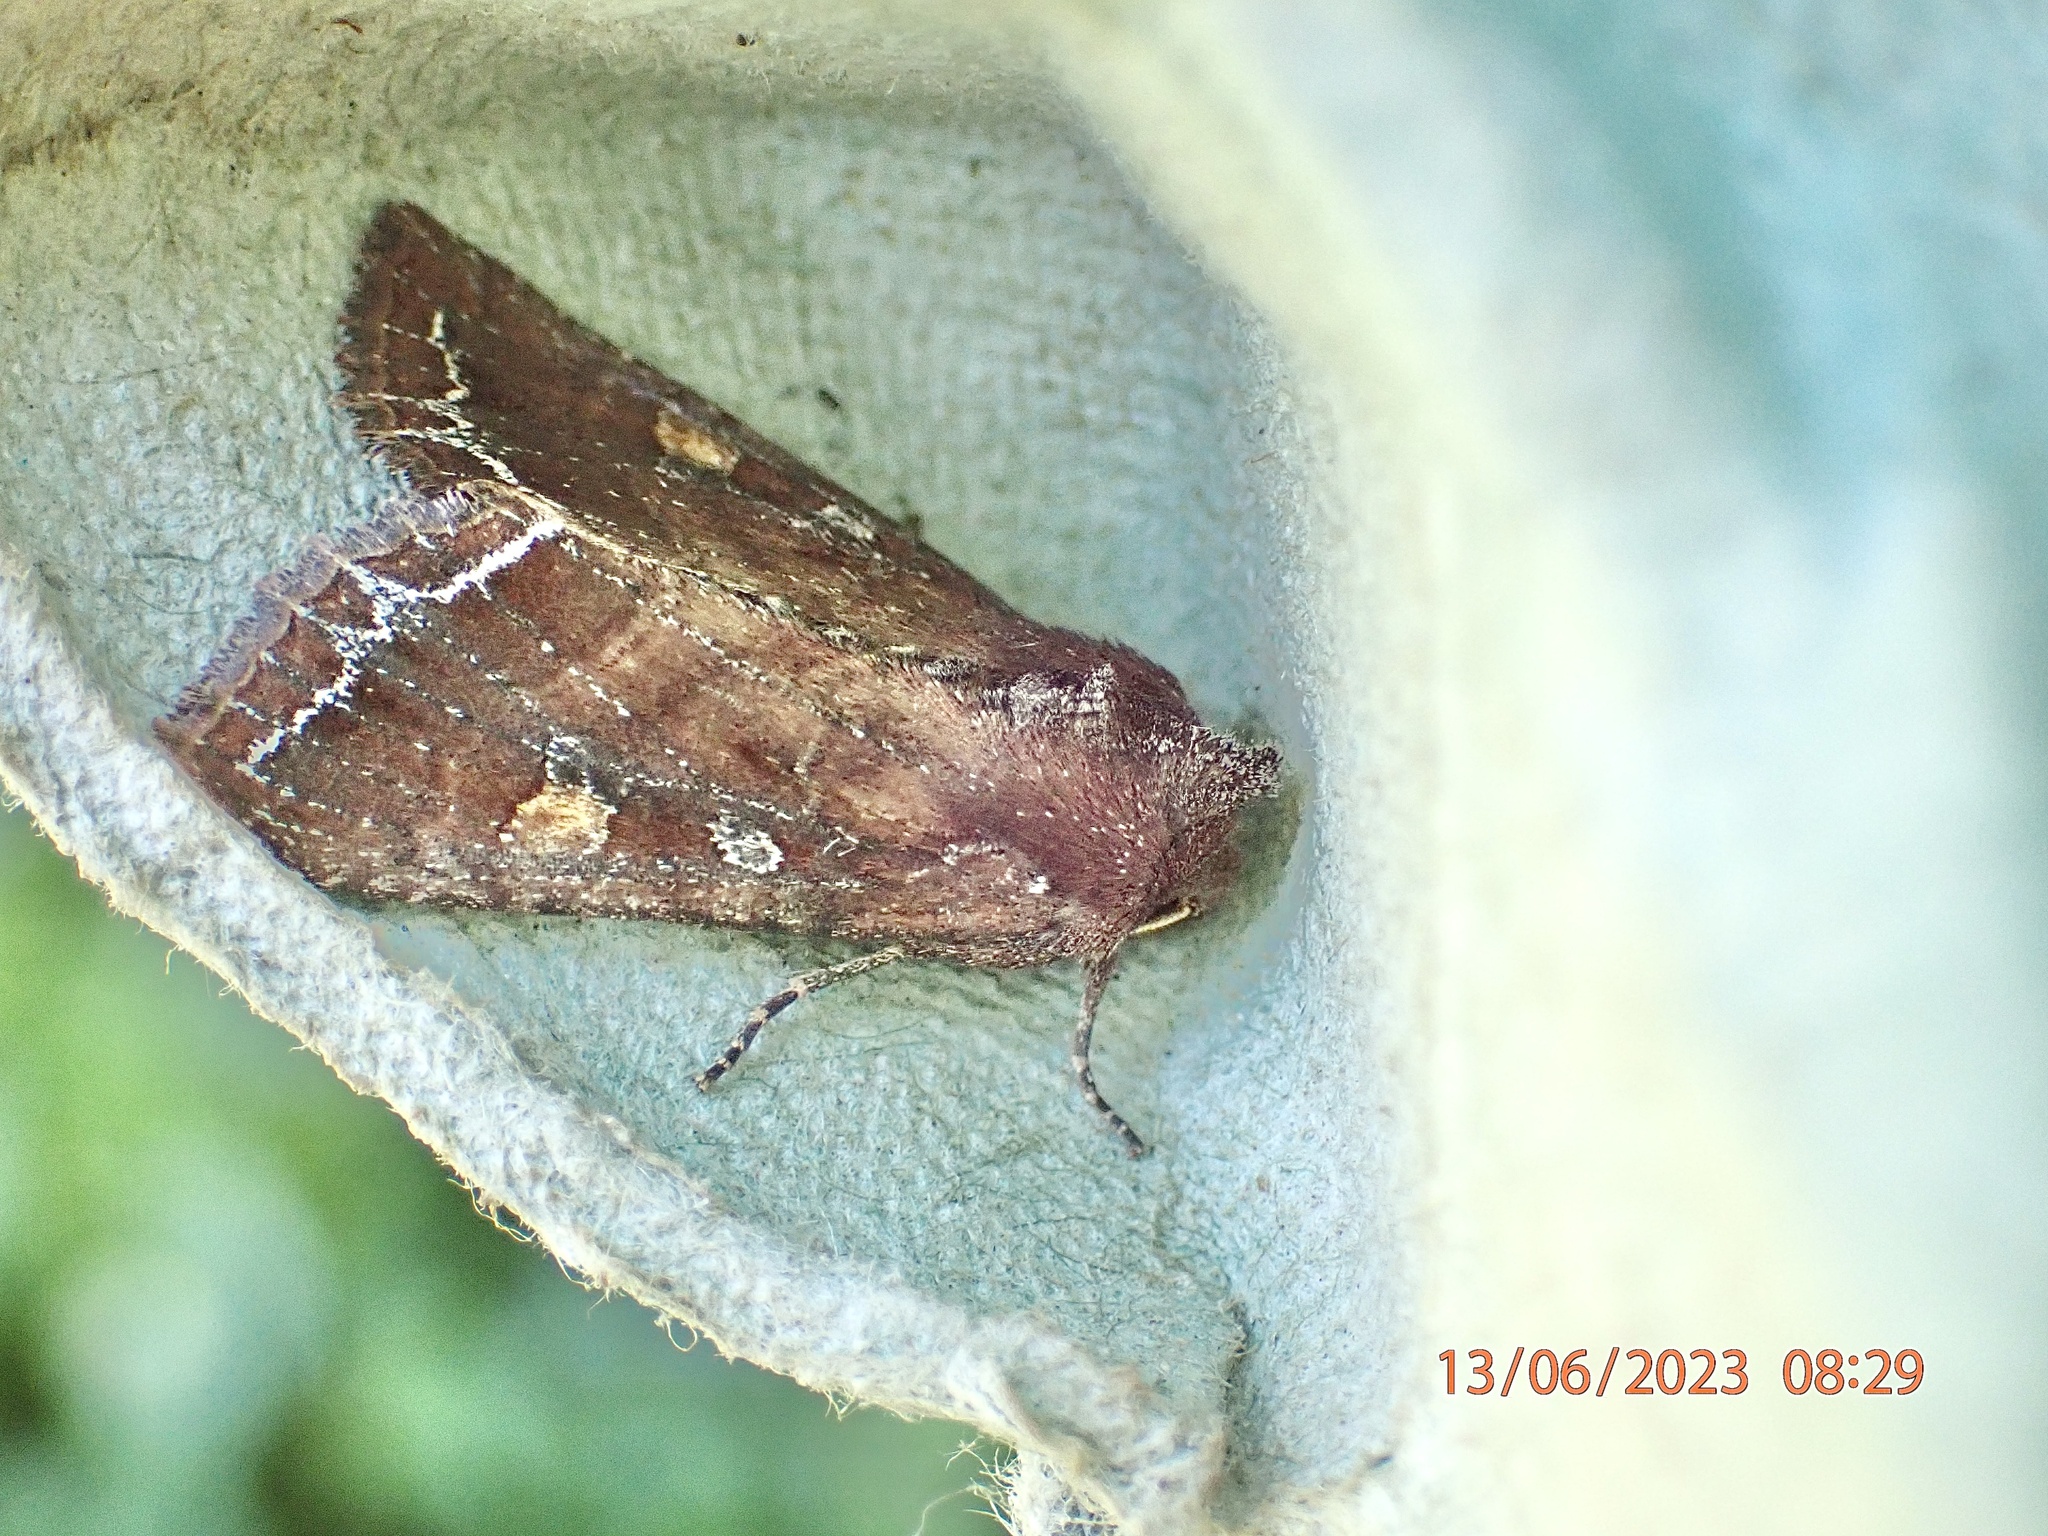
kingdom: Animalia
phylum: Arthropoda
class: Insecta
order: Lepidoptera
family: Noctuidae
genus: Lacanobia
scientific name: Lacanobia oleracea
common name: Bright-line brown-eye
